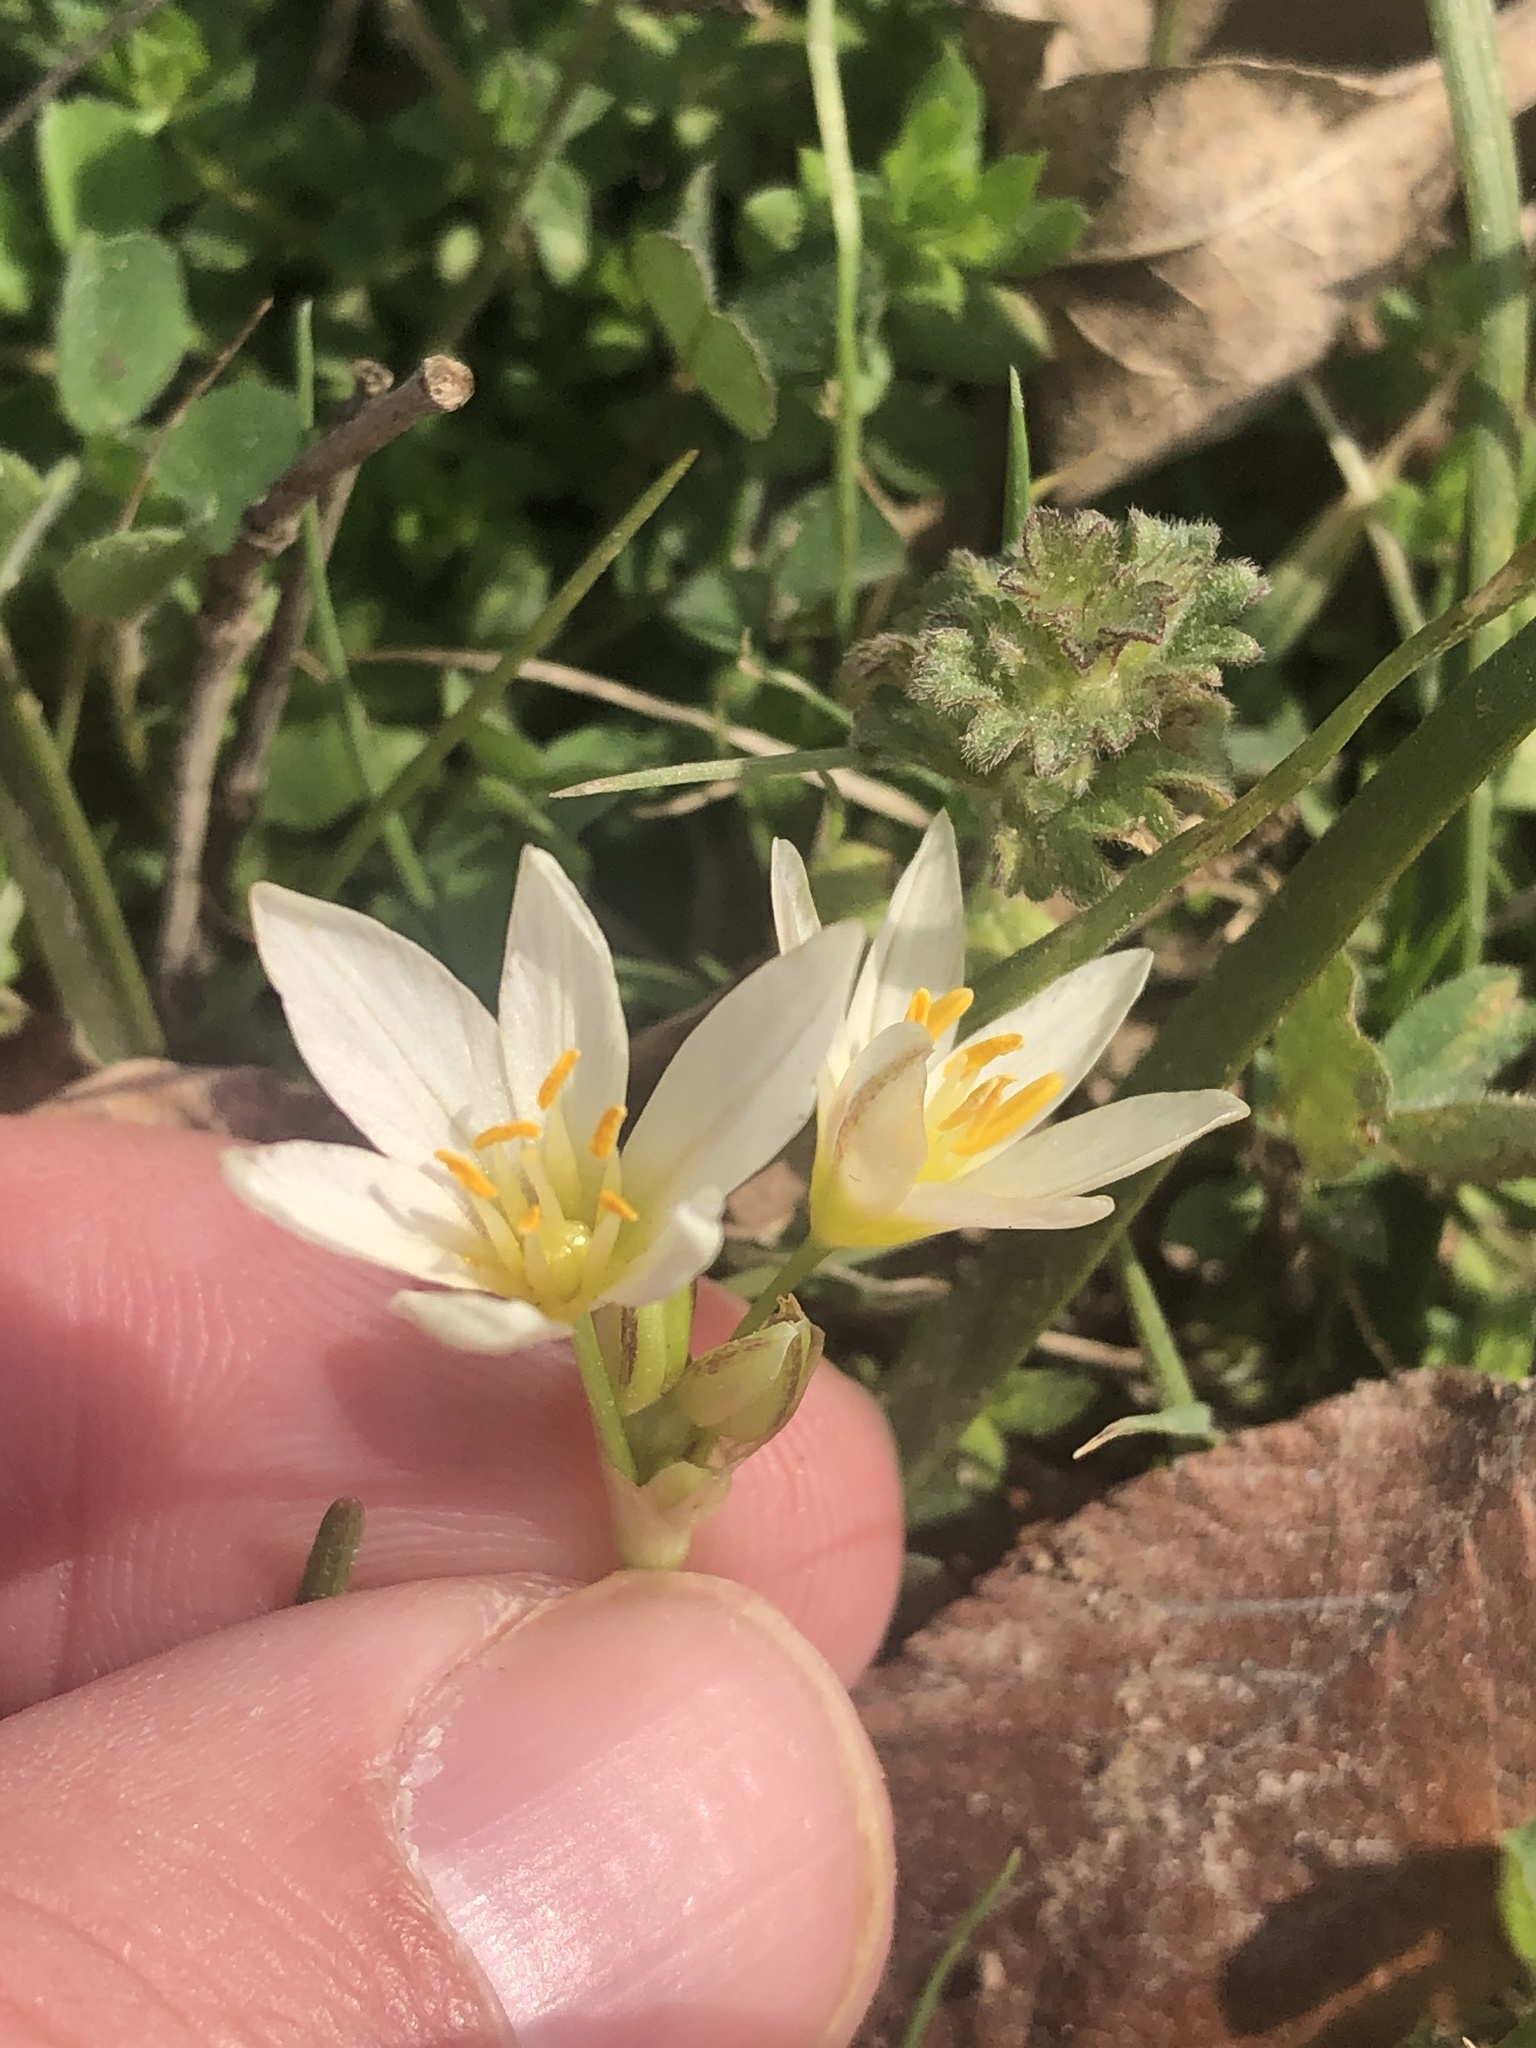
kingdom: Plantae
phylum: Tracheophyta
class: Liliopsida
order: Asparagales
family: Amaryllidaceae
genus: Nothoscordum
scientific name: Nothoscordum bivalve
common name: Crow-poison
